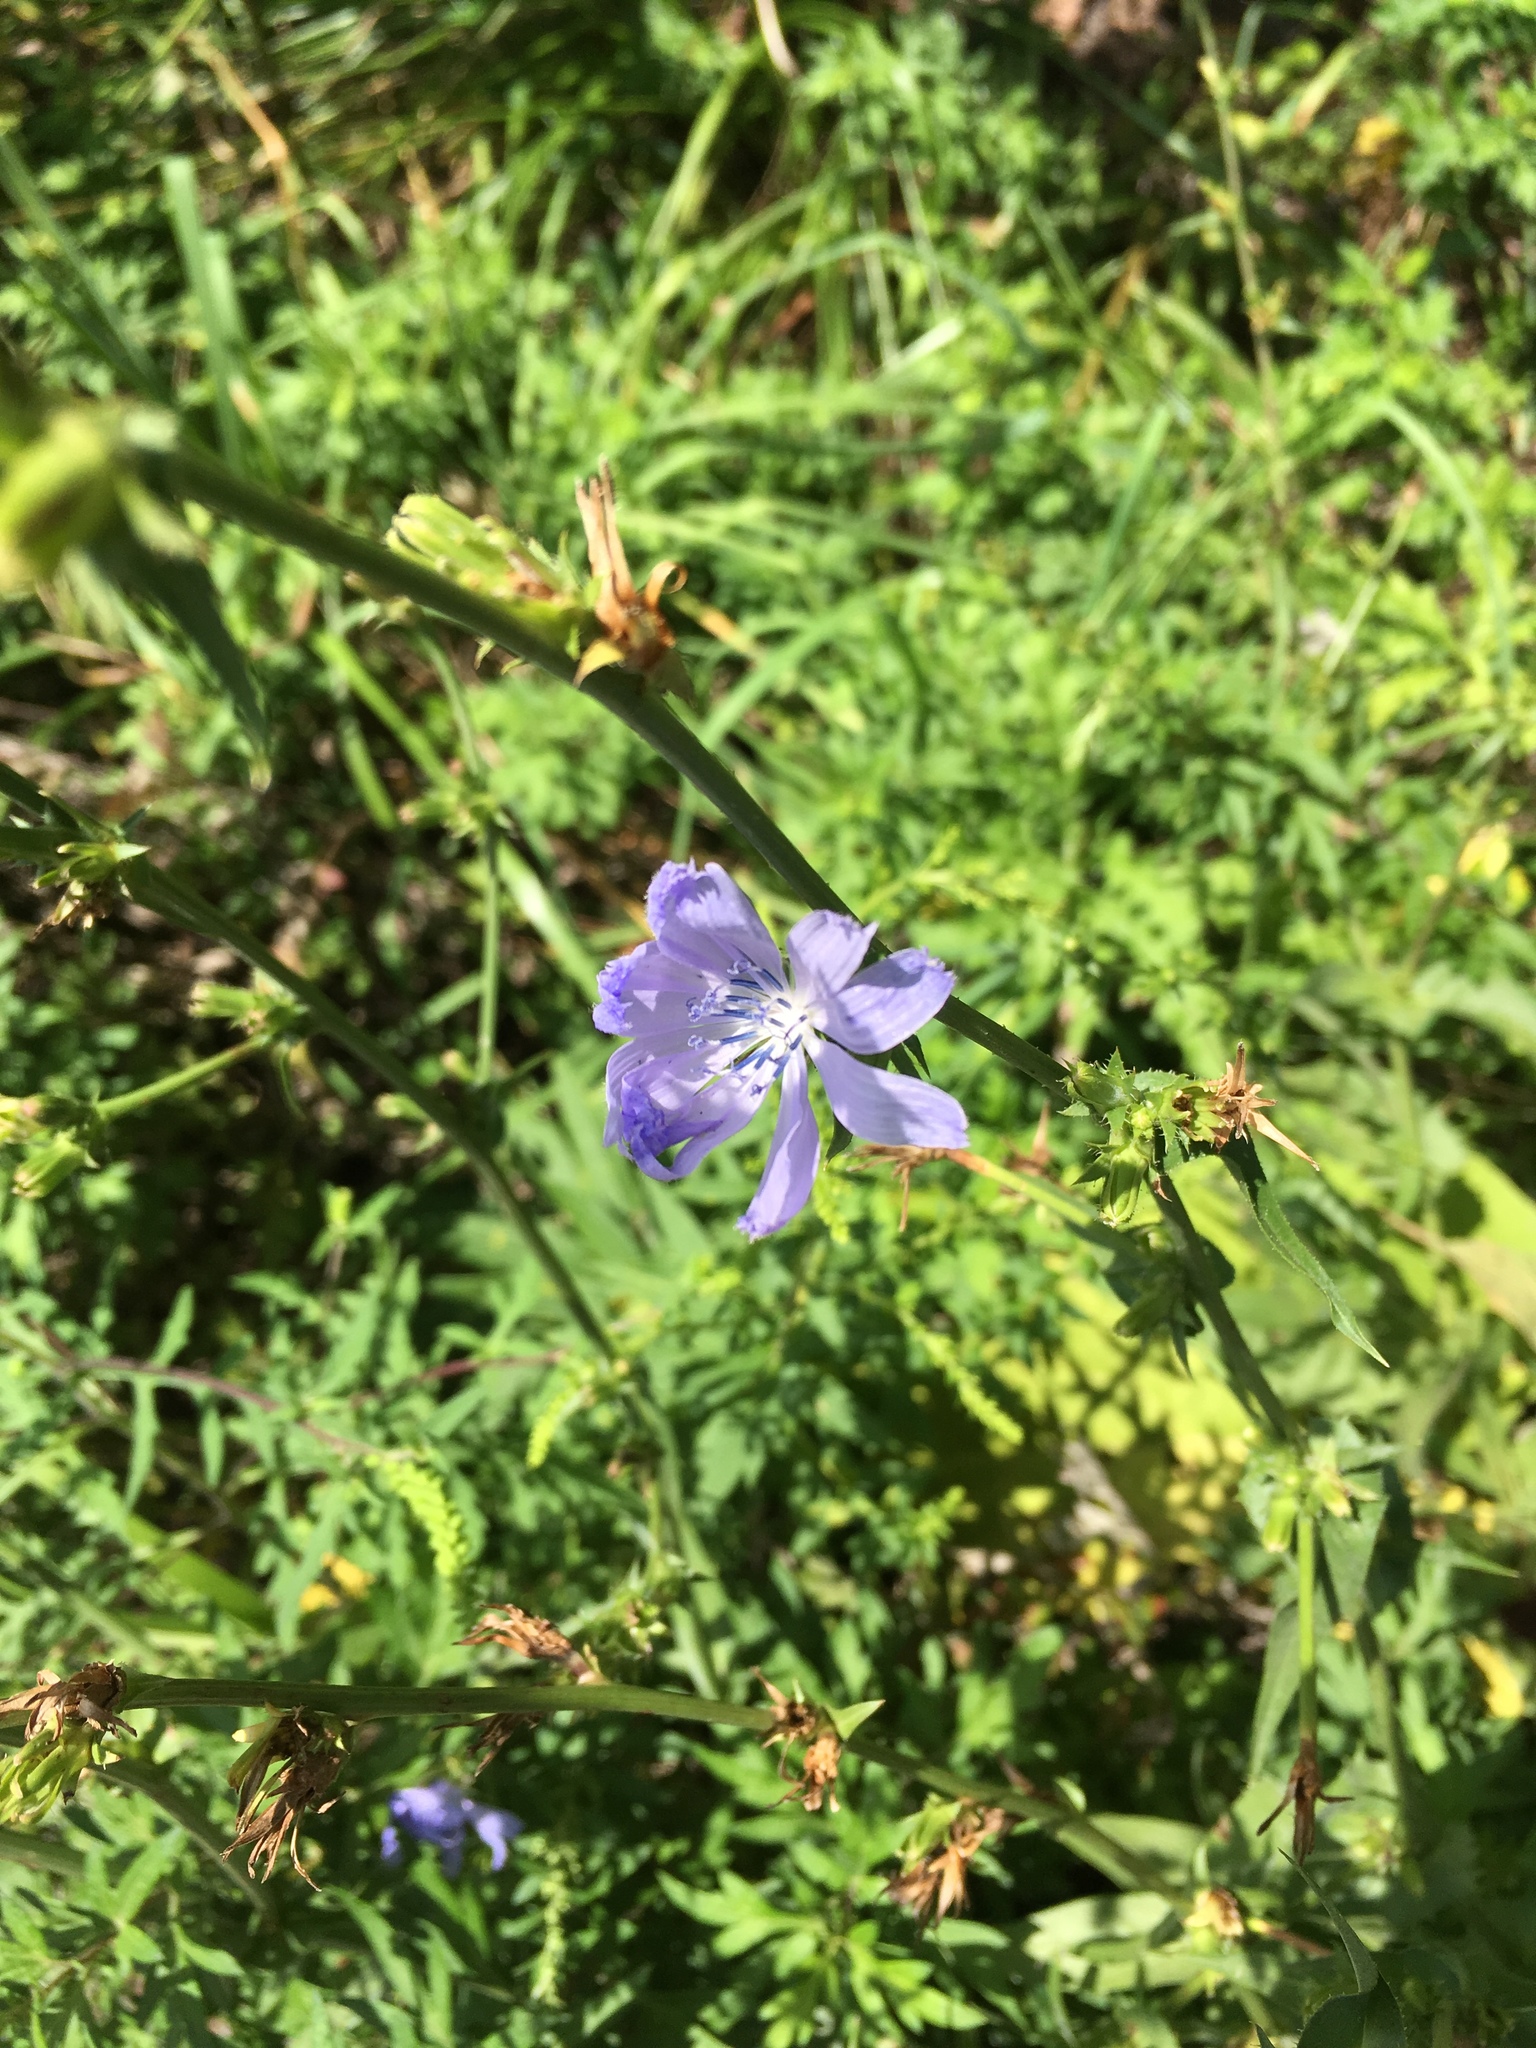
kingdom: Plantae
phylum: Tracheophyta
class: Magnoliopsida
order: Asterales
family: Asteraceae
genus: Cichorium
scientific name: Cichorium intybus
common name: Chicory
